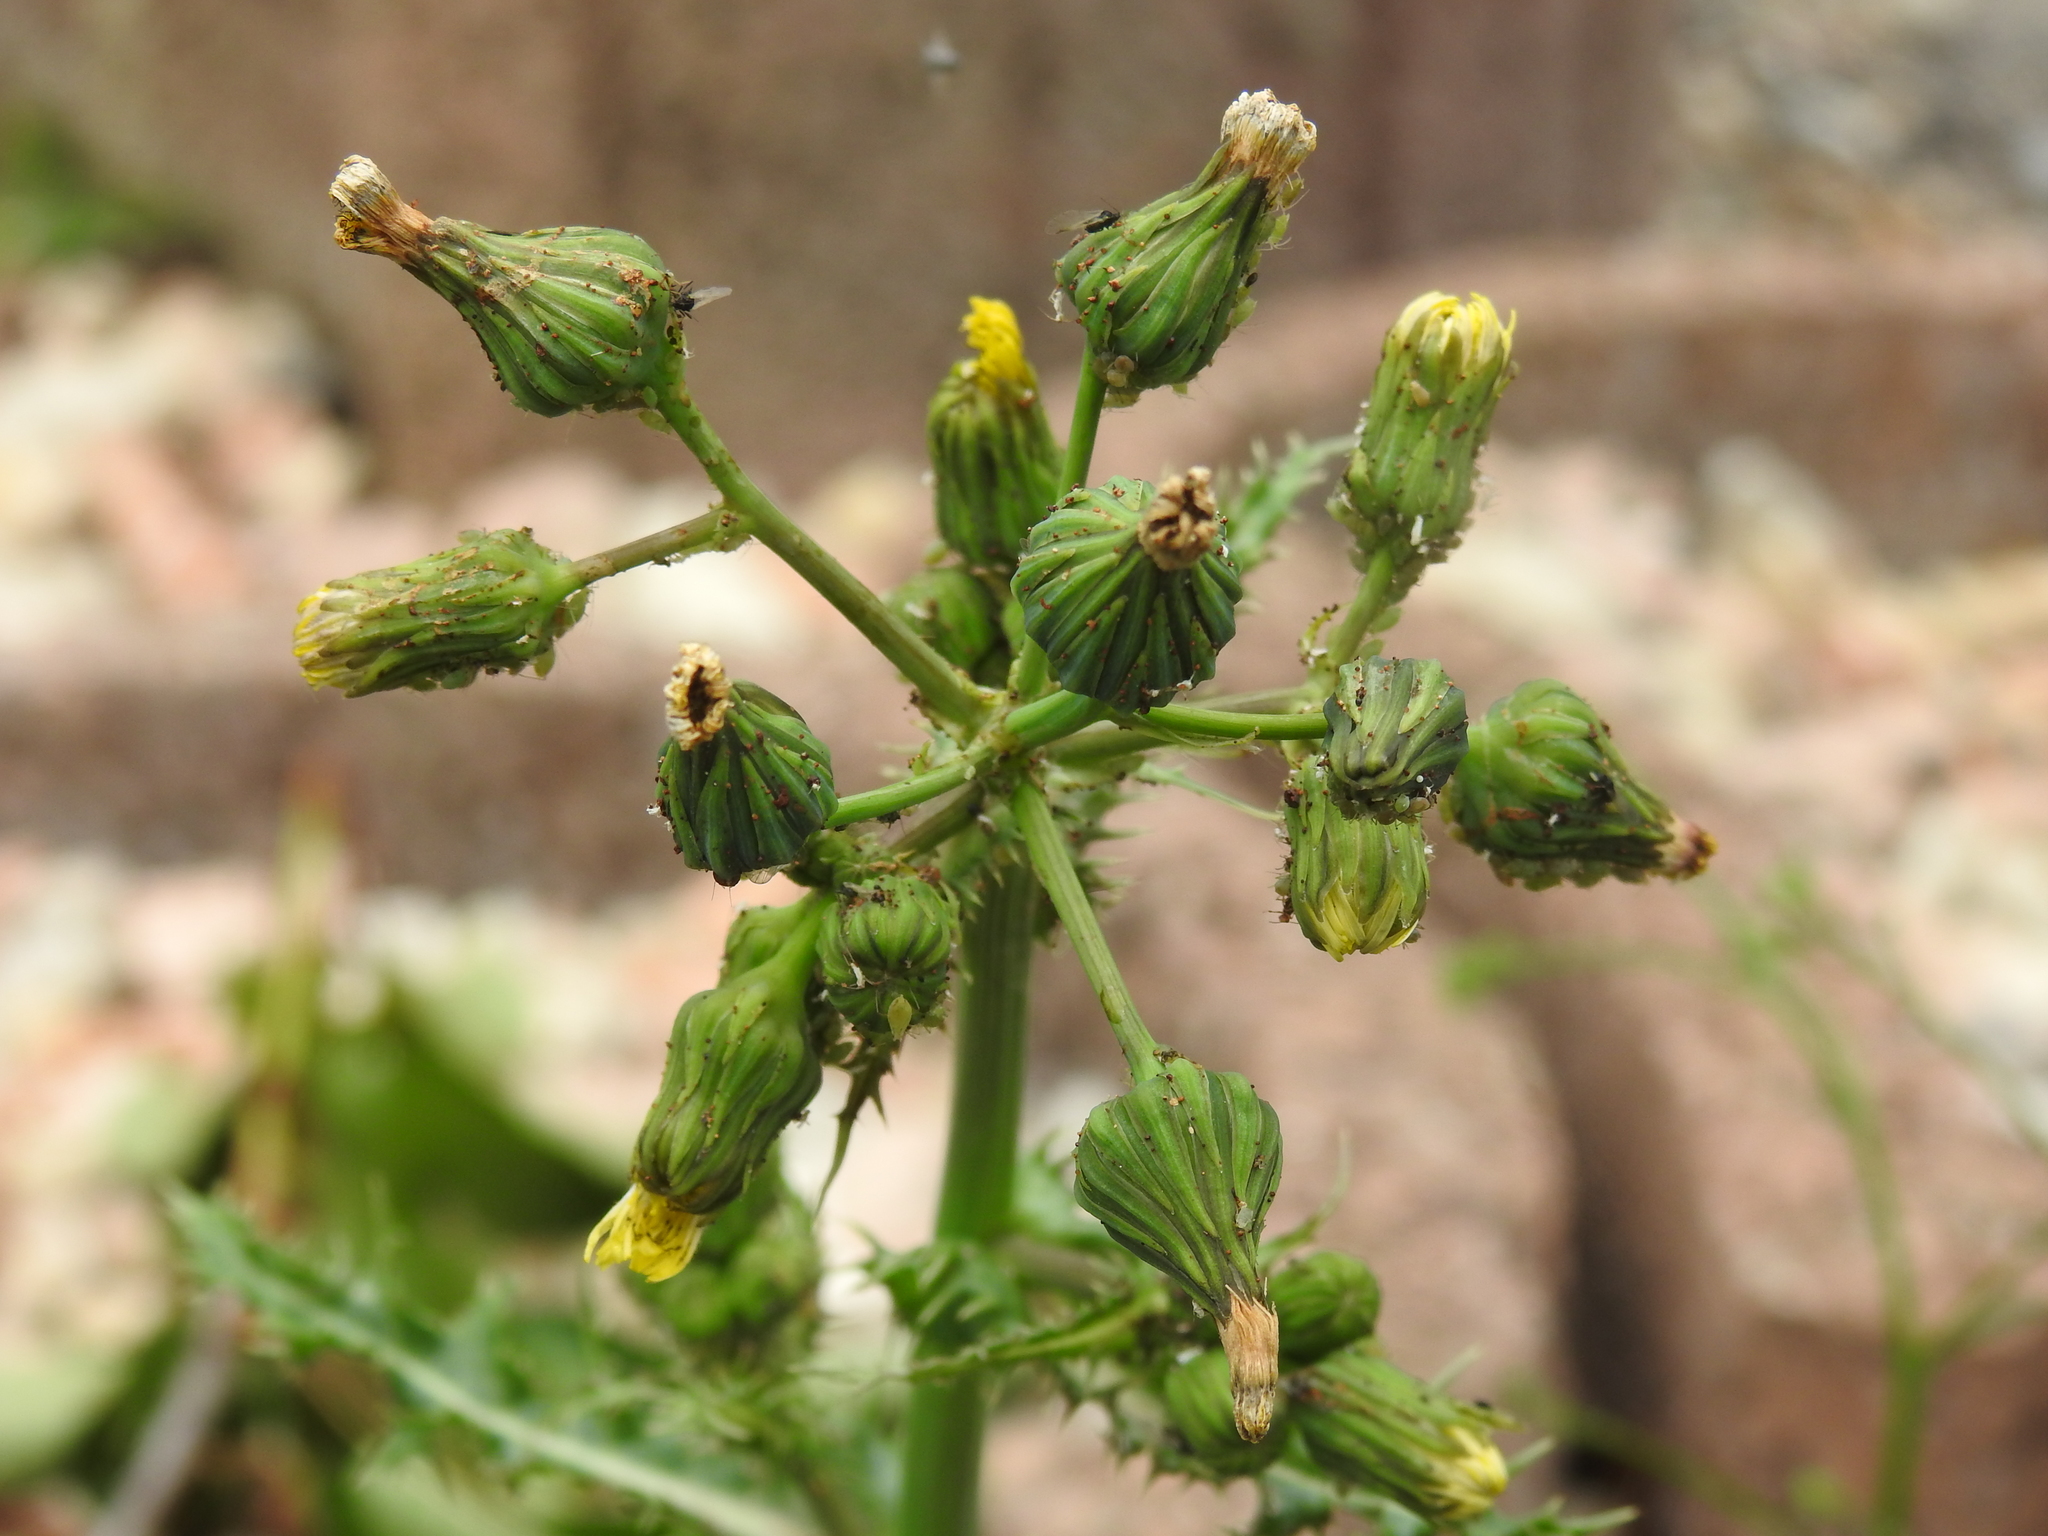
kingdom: Plantae
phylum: Tracheophyta
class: Magnoliopsida
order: Asterales
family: Asteraceae
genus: Sonchus
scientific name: Sonchus asper
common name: Prickly sow-thistle
